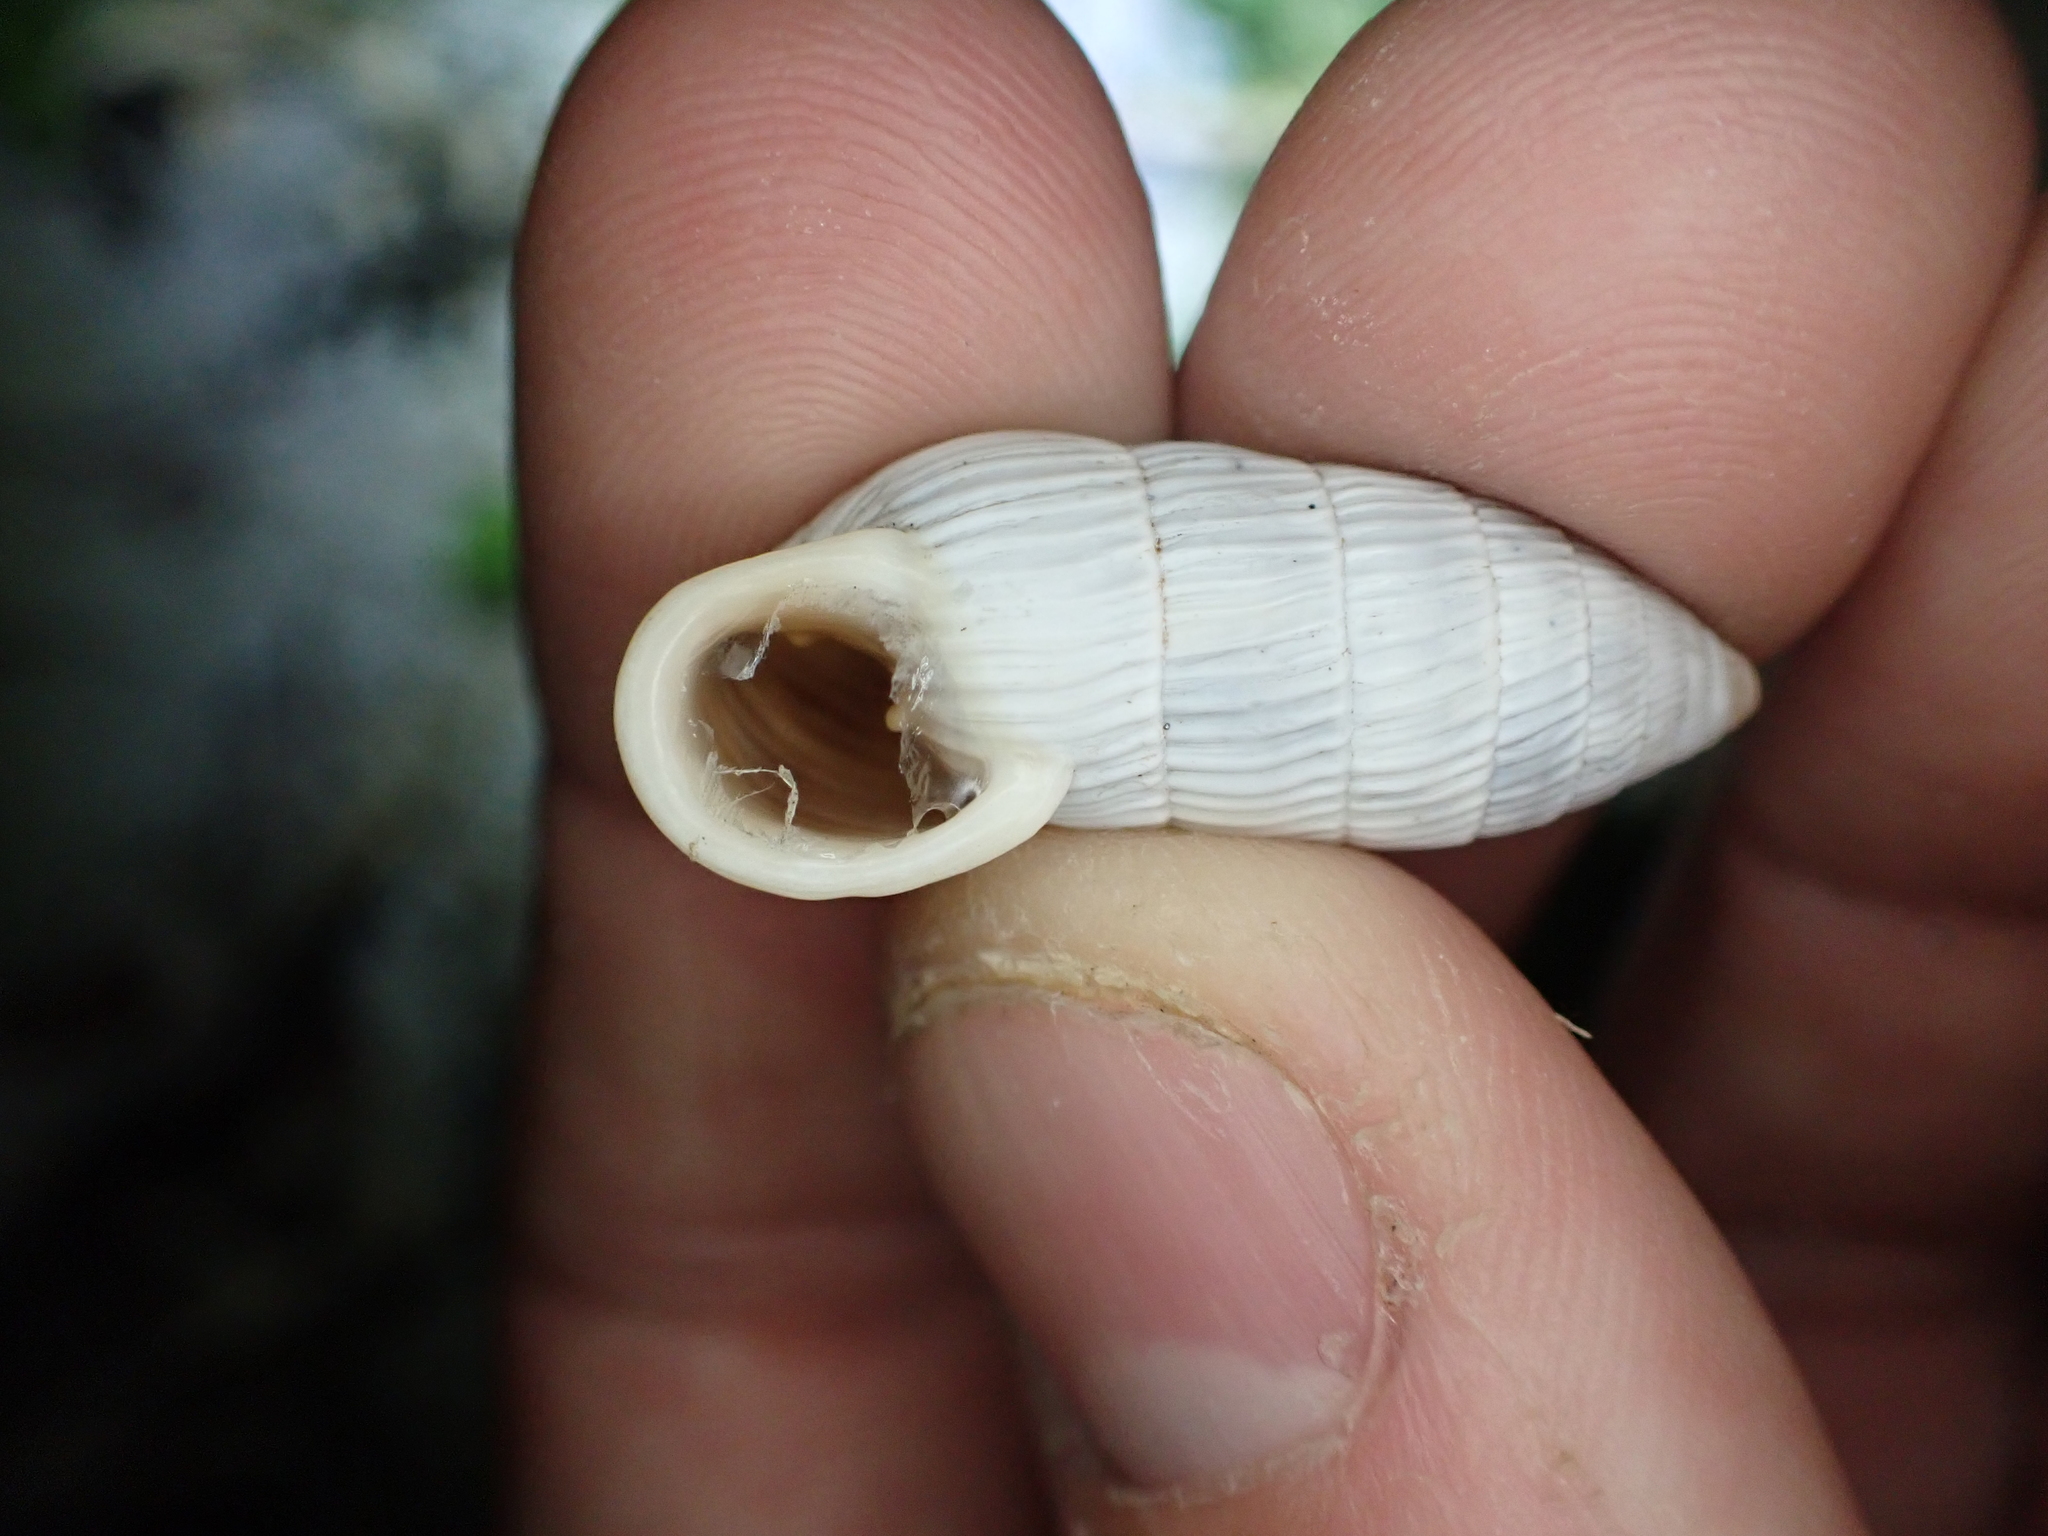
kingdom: Animalia
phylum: Mollusca
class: Gastropoda
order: Stylommatophora
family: Cerionidae
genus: Cerion
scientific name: Cerion tridentatum
